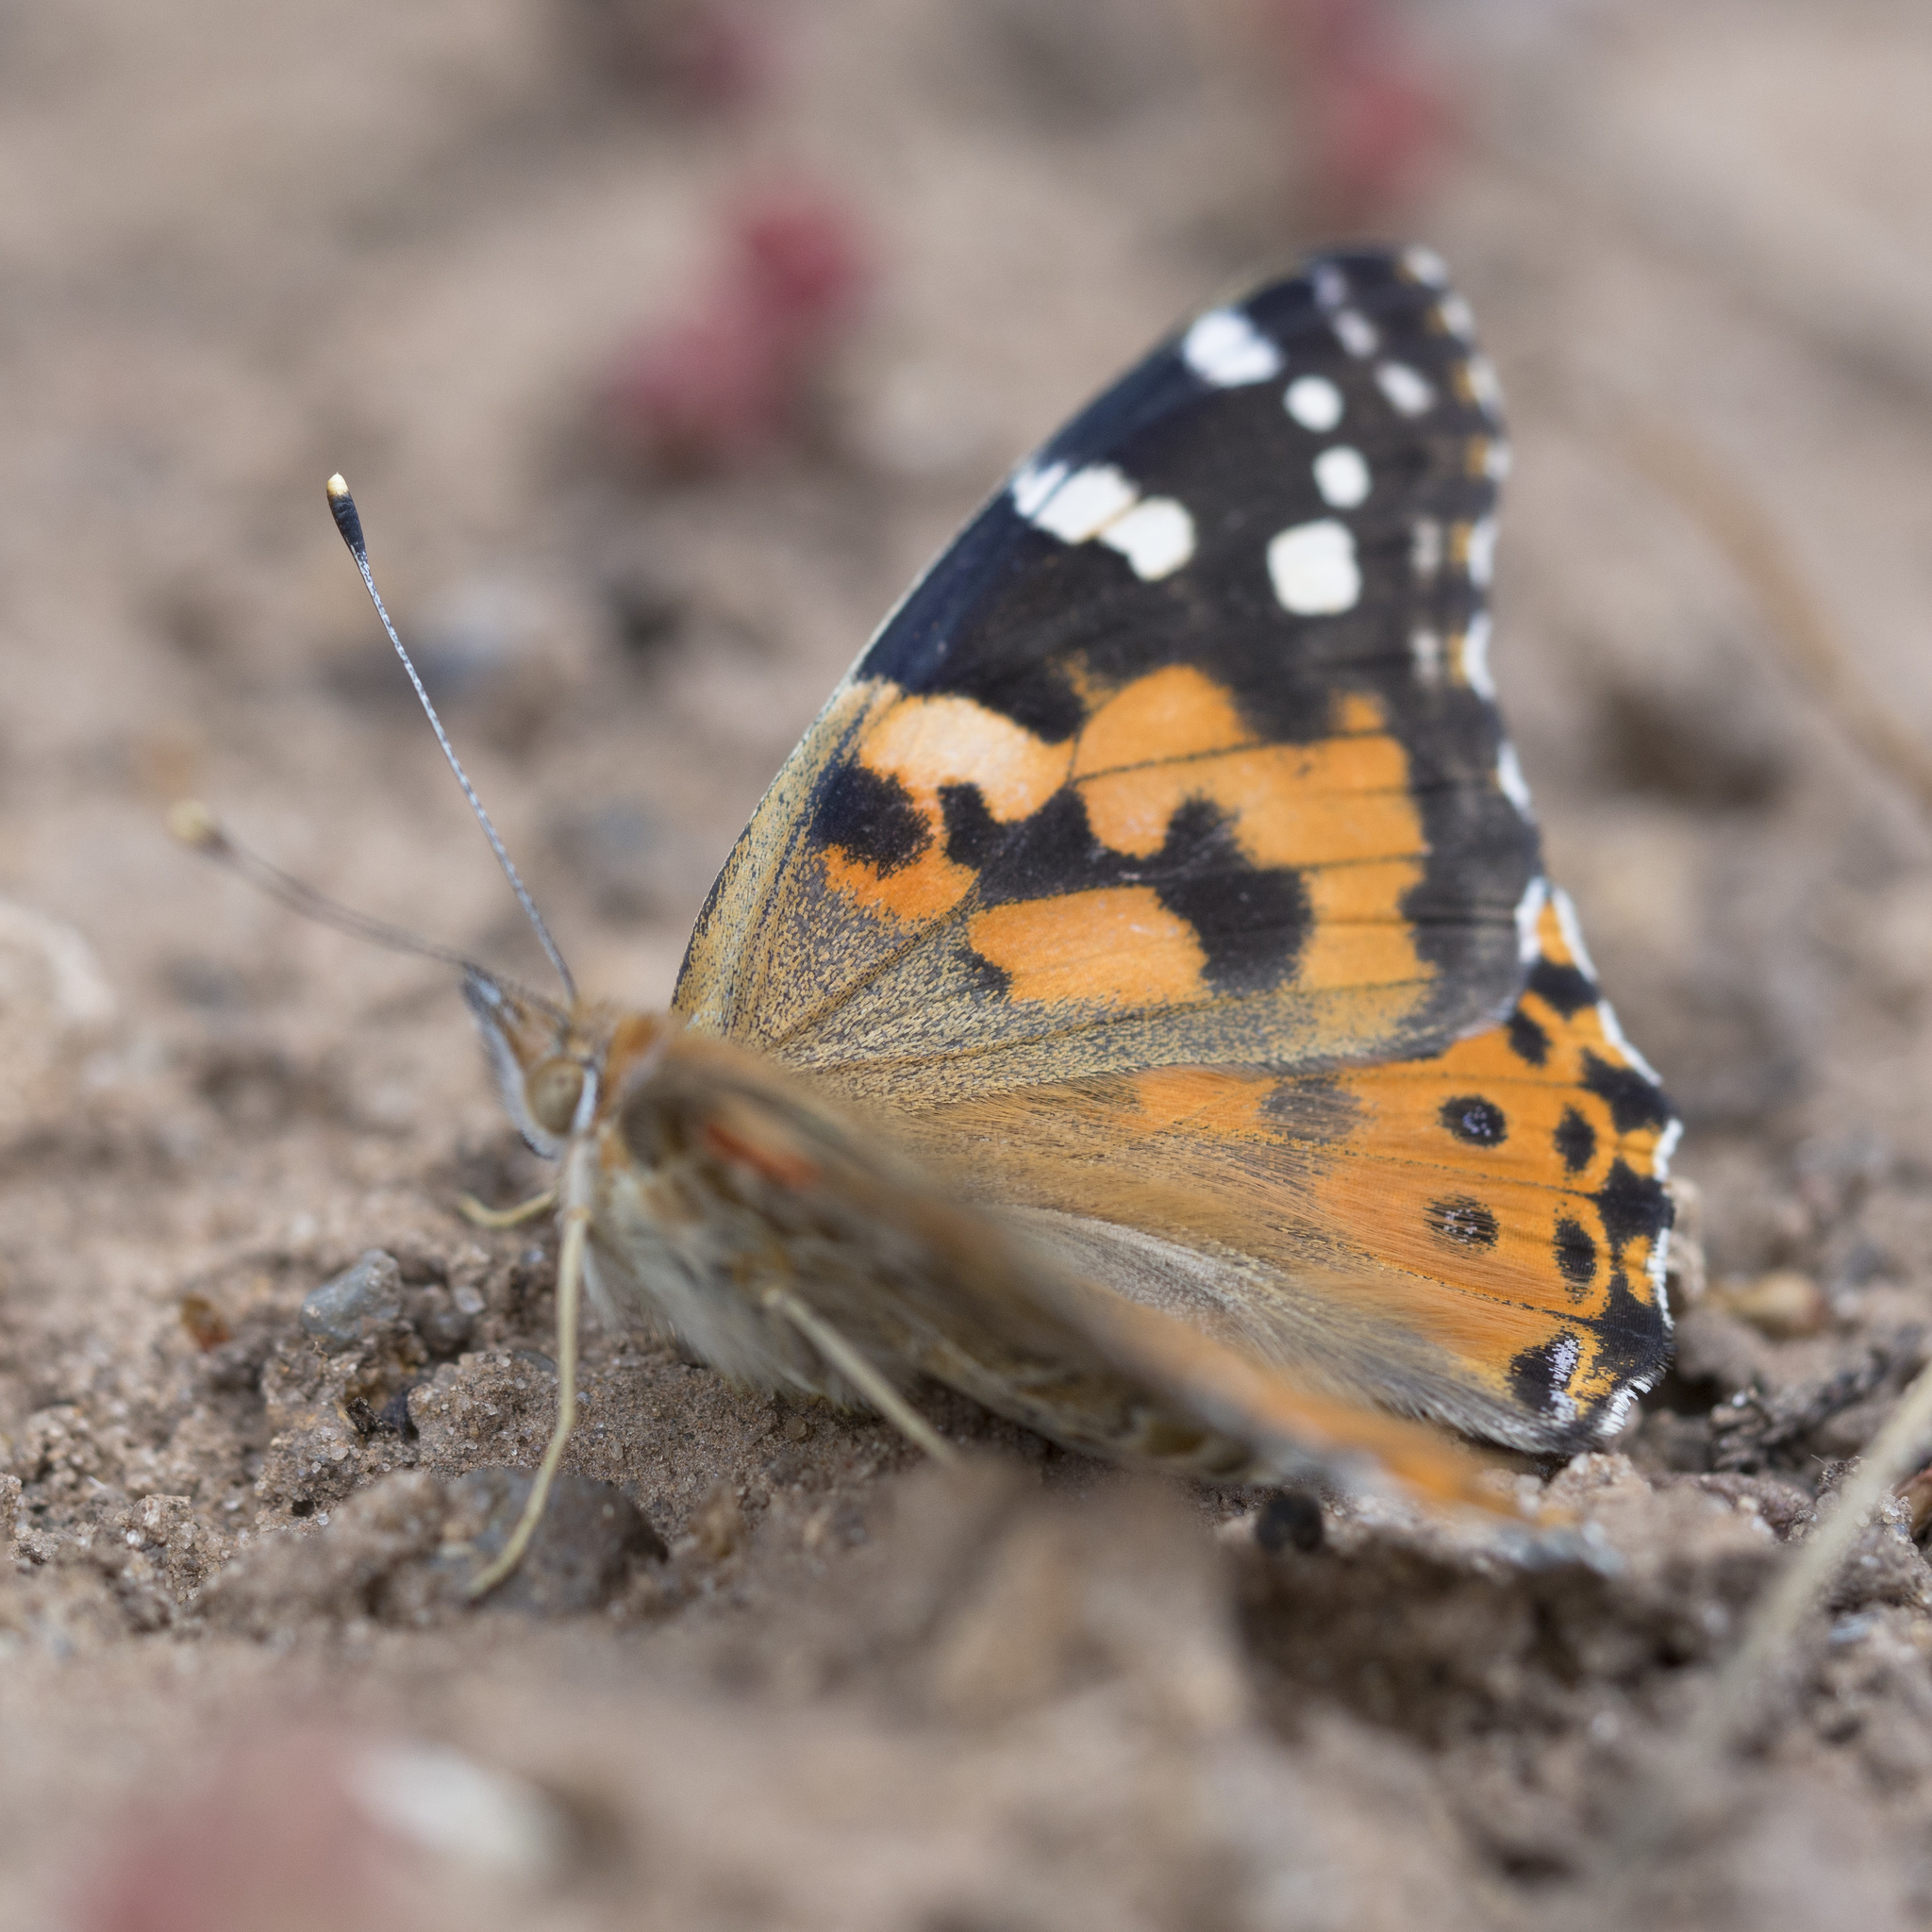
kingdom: Animalia
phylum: Arthropoda
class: Insecta
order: Lepidoptera
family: Nymphalidae
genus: Vanessa
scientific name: Vanessa cardui
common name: Painted lady
